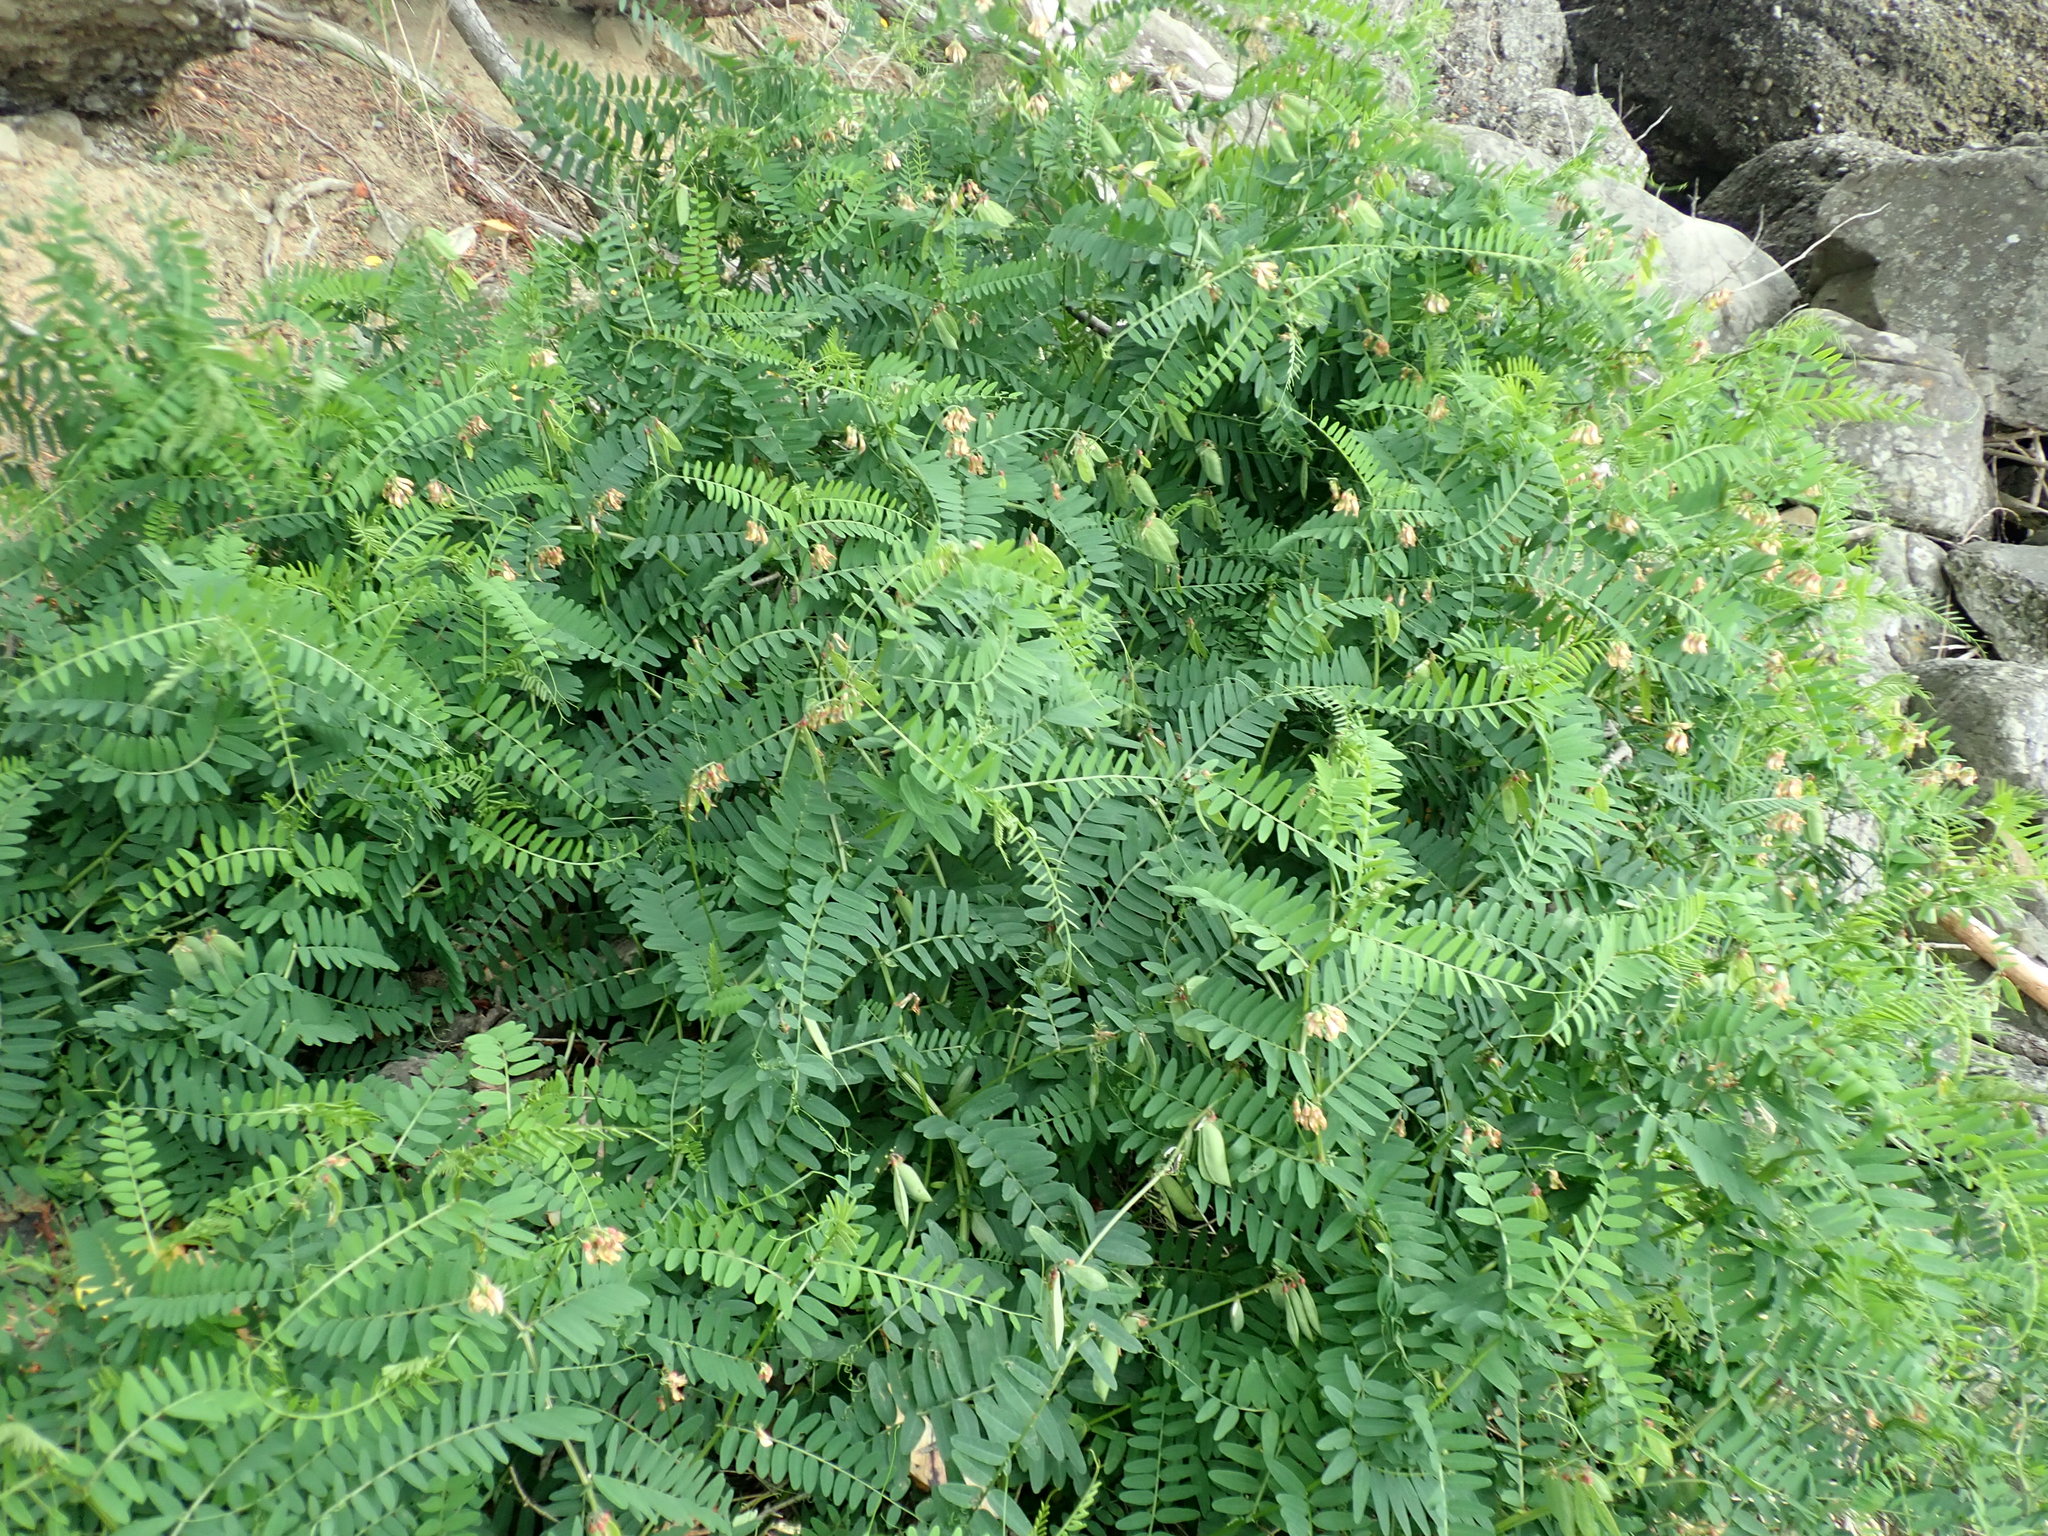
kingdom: Plantae
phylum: Tracheophyta
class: Magnoliopsida
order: Fabales
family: Fabaceae
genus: Vicia
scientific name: Vicia
